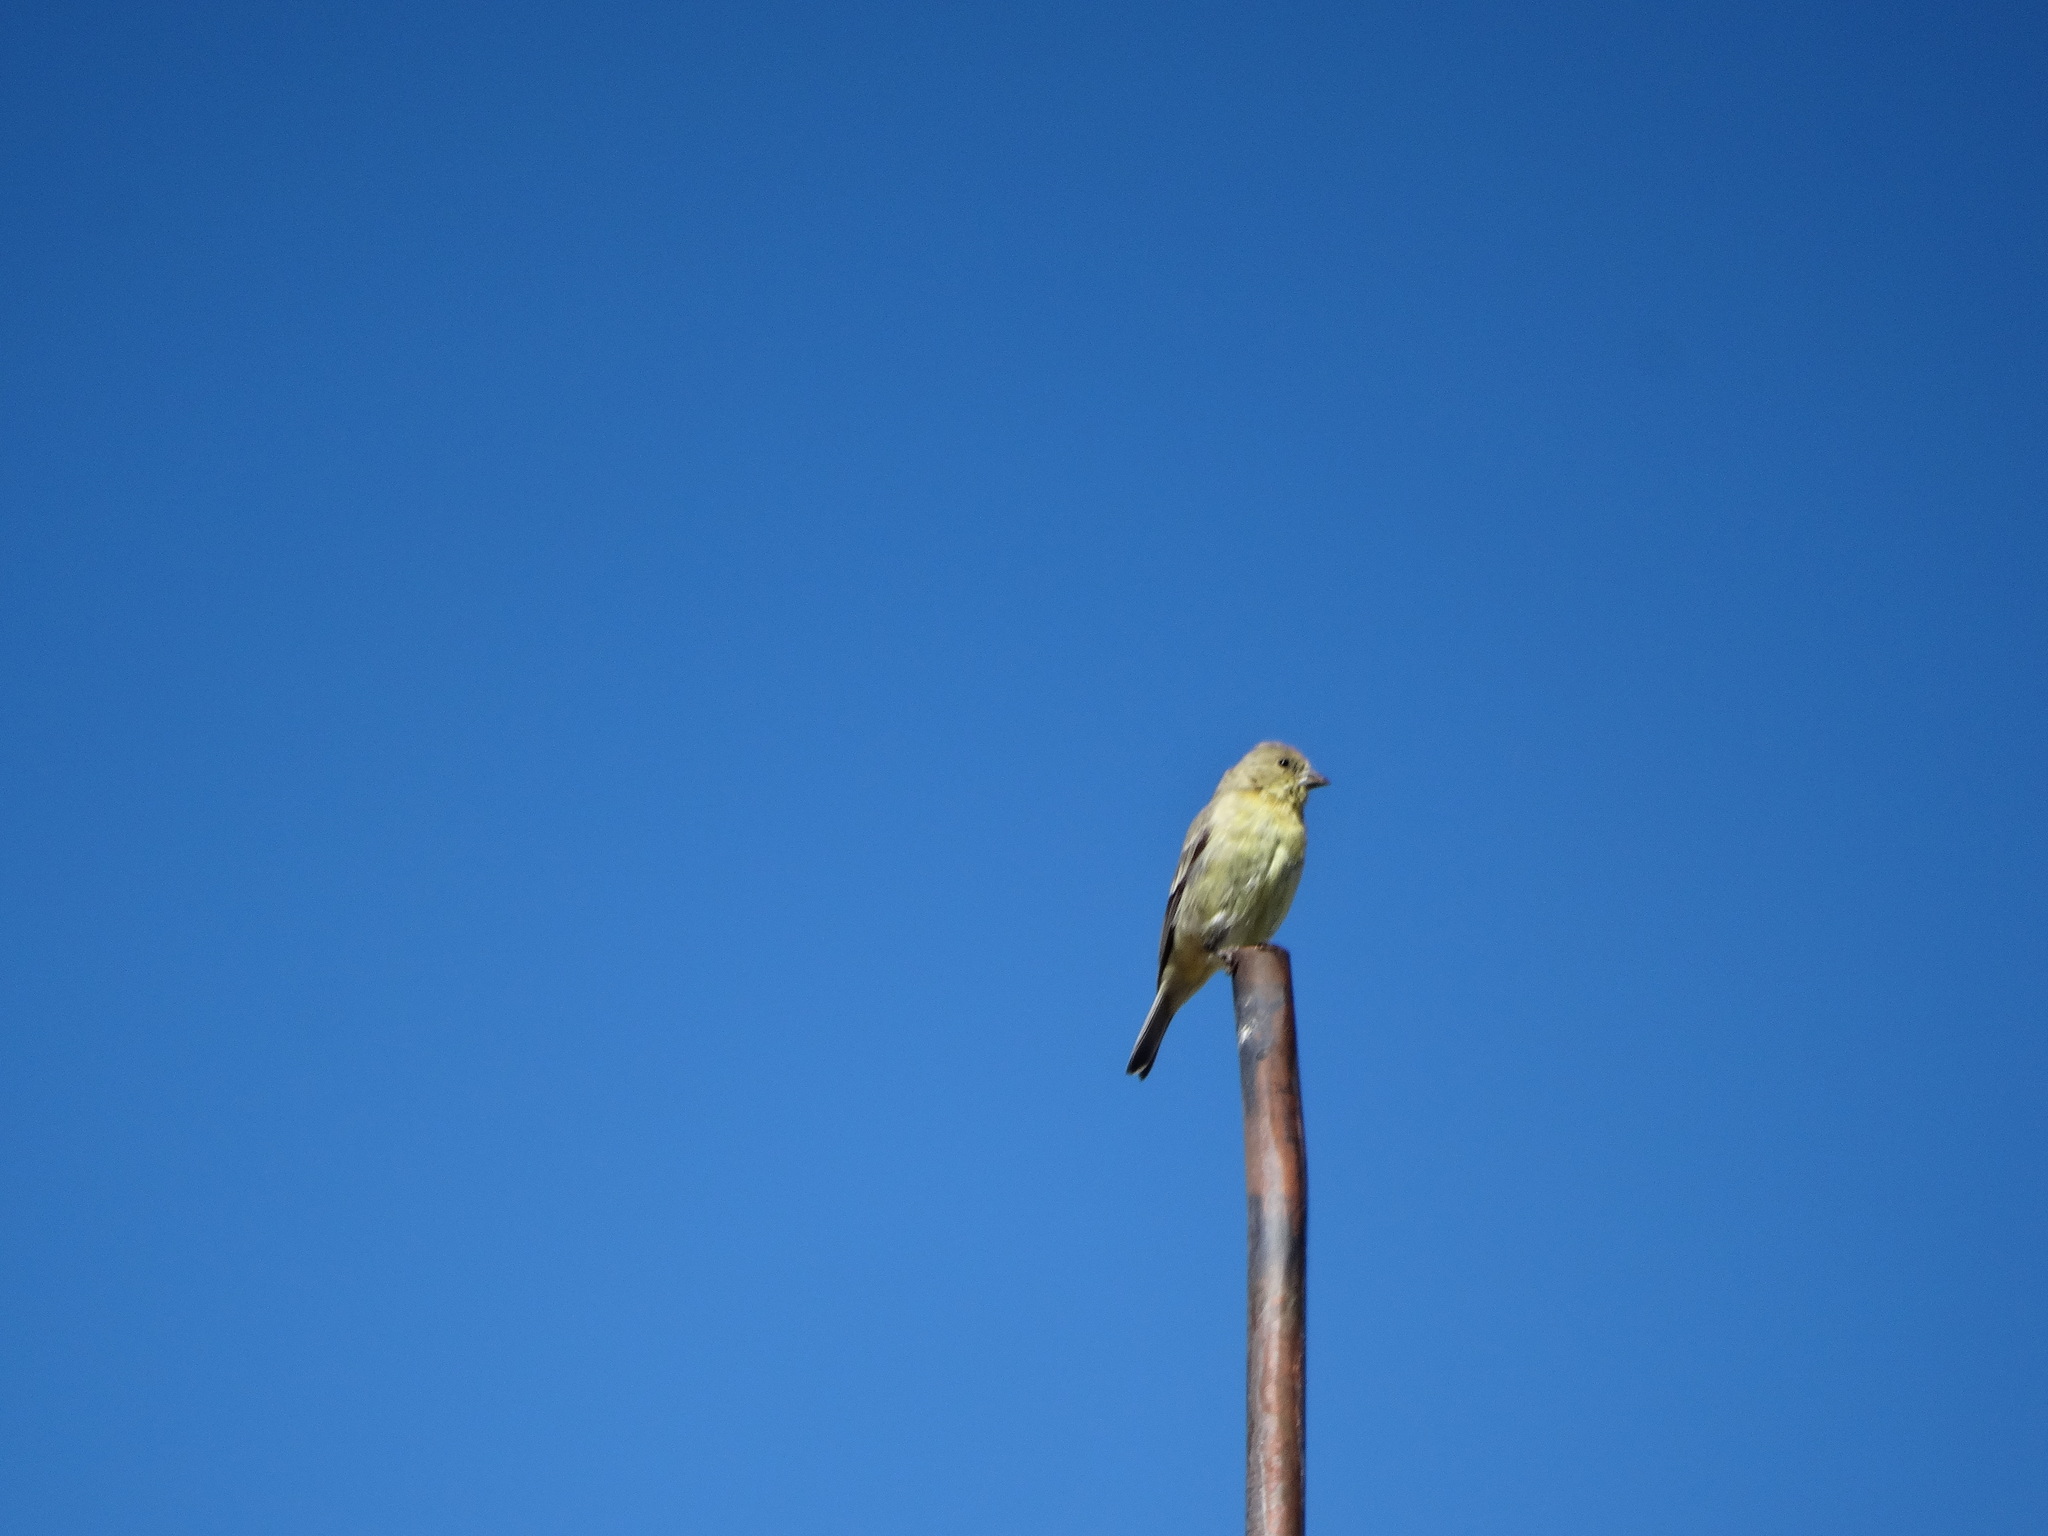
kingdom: Animalia
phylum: Chordata
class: Aves
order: Passeriformes
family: Fringillidae
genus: Spinus
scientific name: Spinus psaltria
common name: Lesser goldfinch
